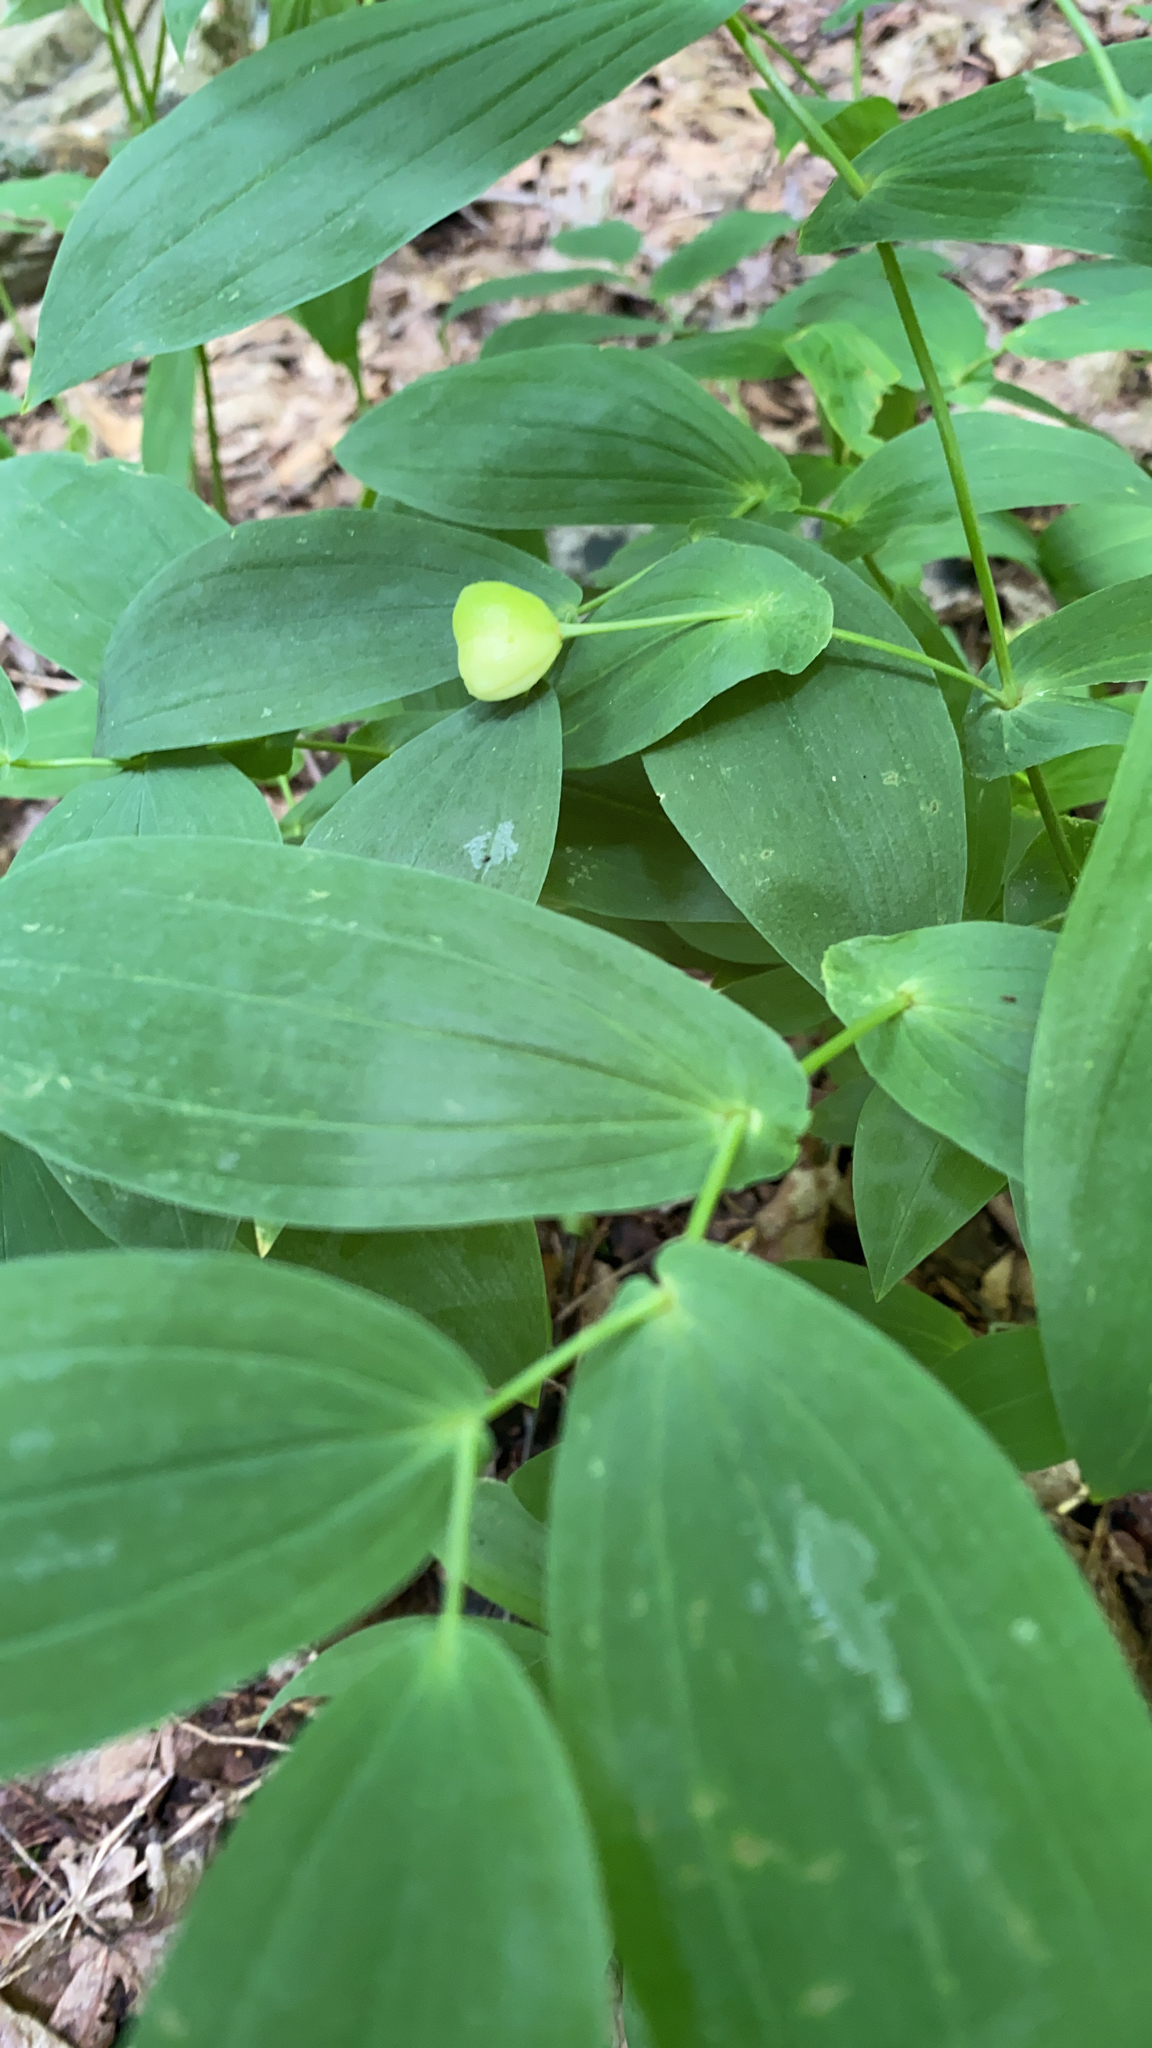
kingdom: Plantae
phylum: Tracheophyta
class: Liliopsida
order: Liliales
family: Colchicaceae
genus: Uvularia
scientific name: Uvularia grandiflora
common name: Bellwort
